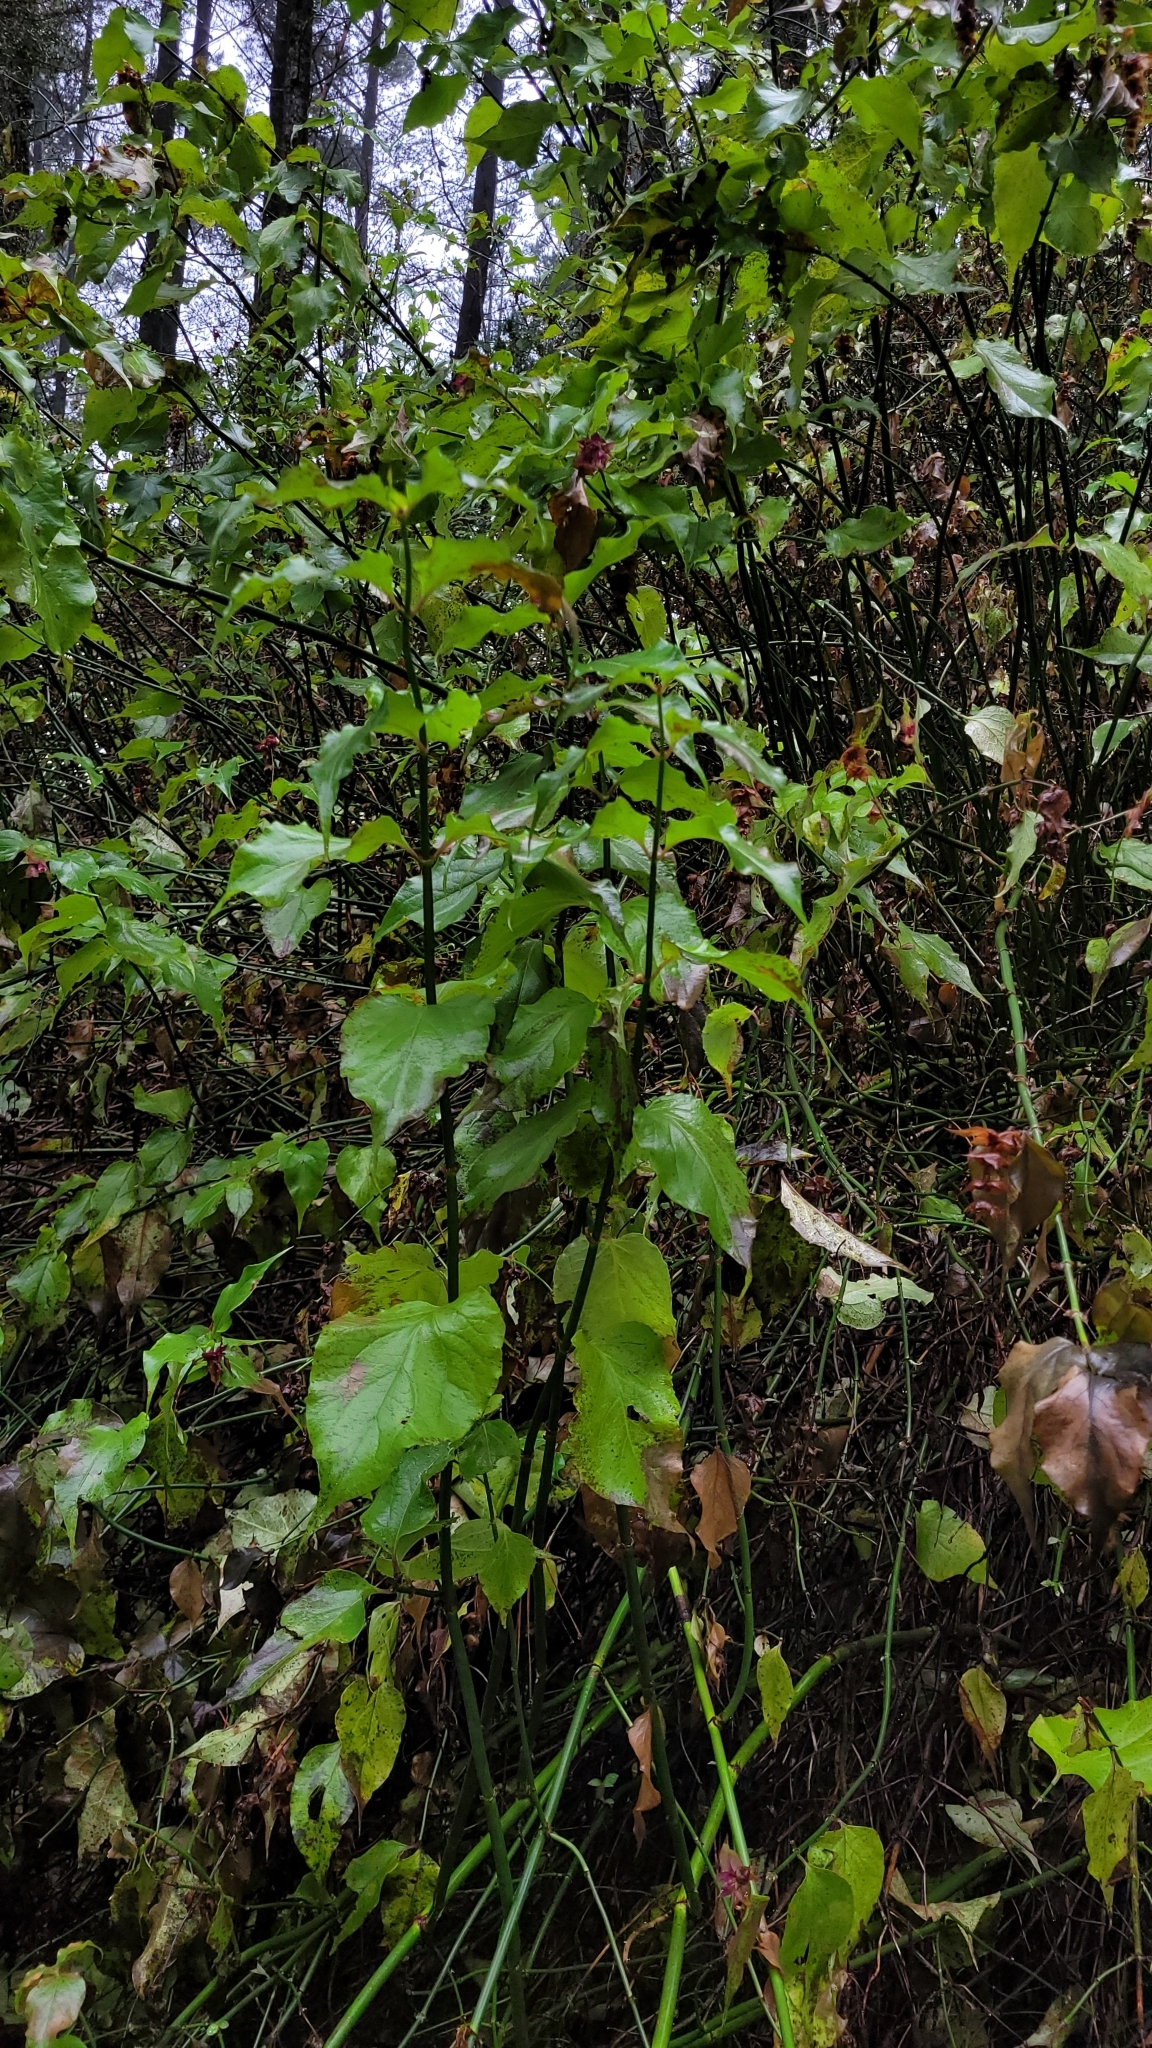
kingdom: Plantae
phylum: Tracheophyta
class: Magnoliopsida
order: Dipsacales
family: Caprifoliaceae
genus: Leycesteria
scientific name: Leycesteria formosa
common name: Himalayan honeysuckle
